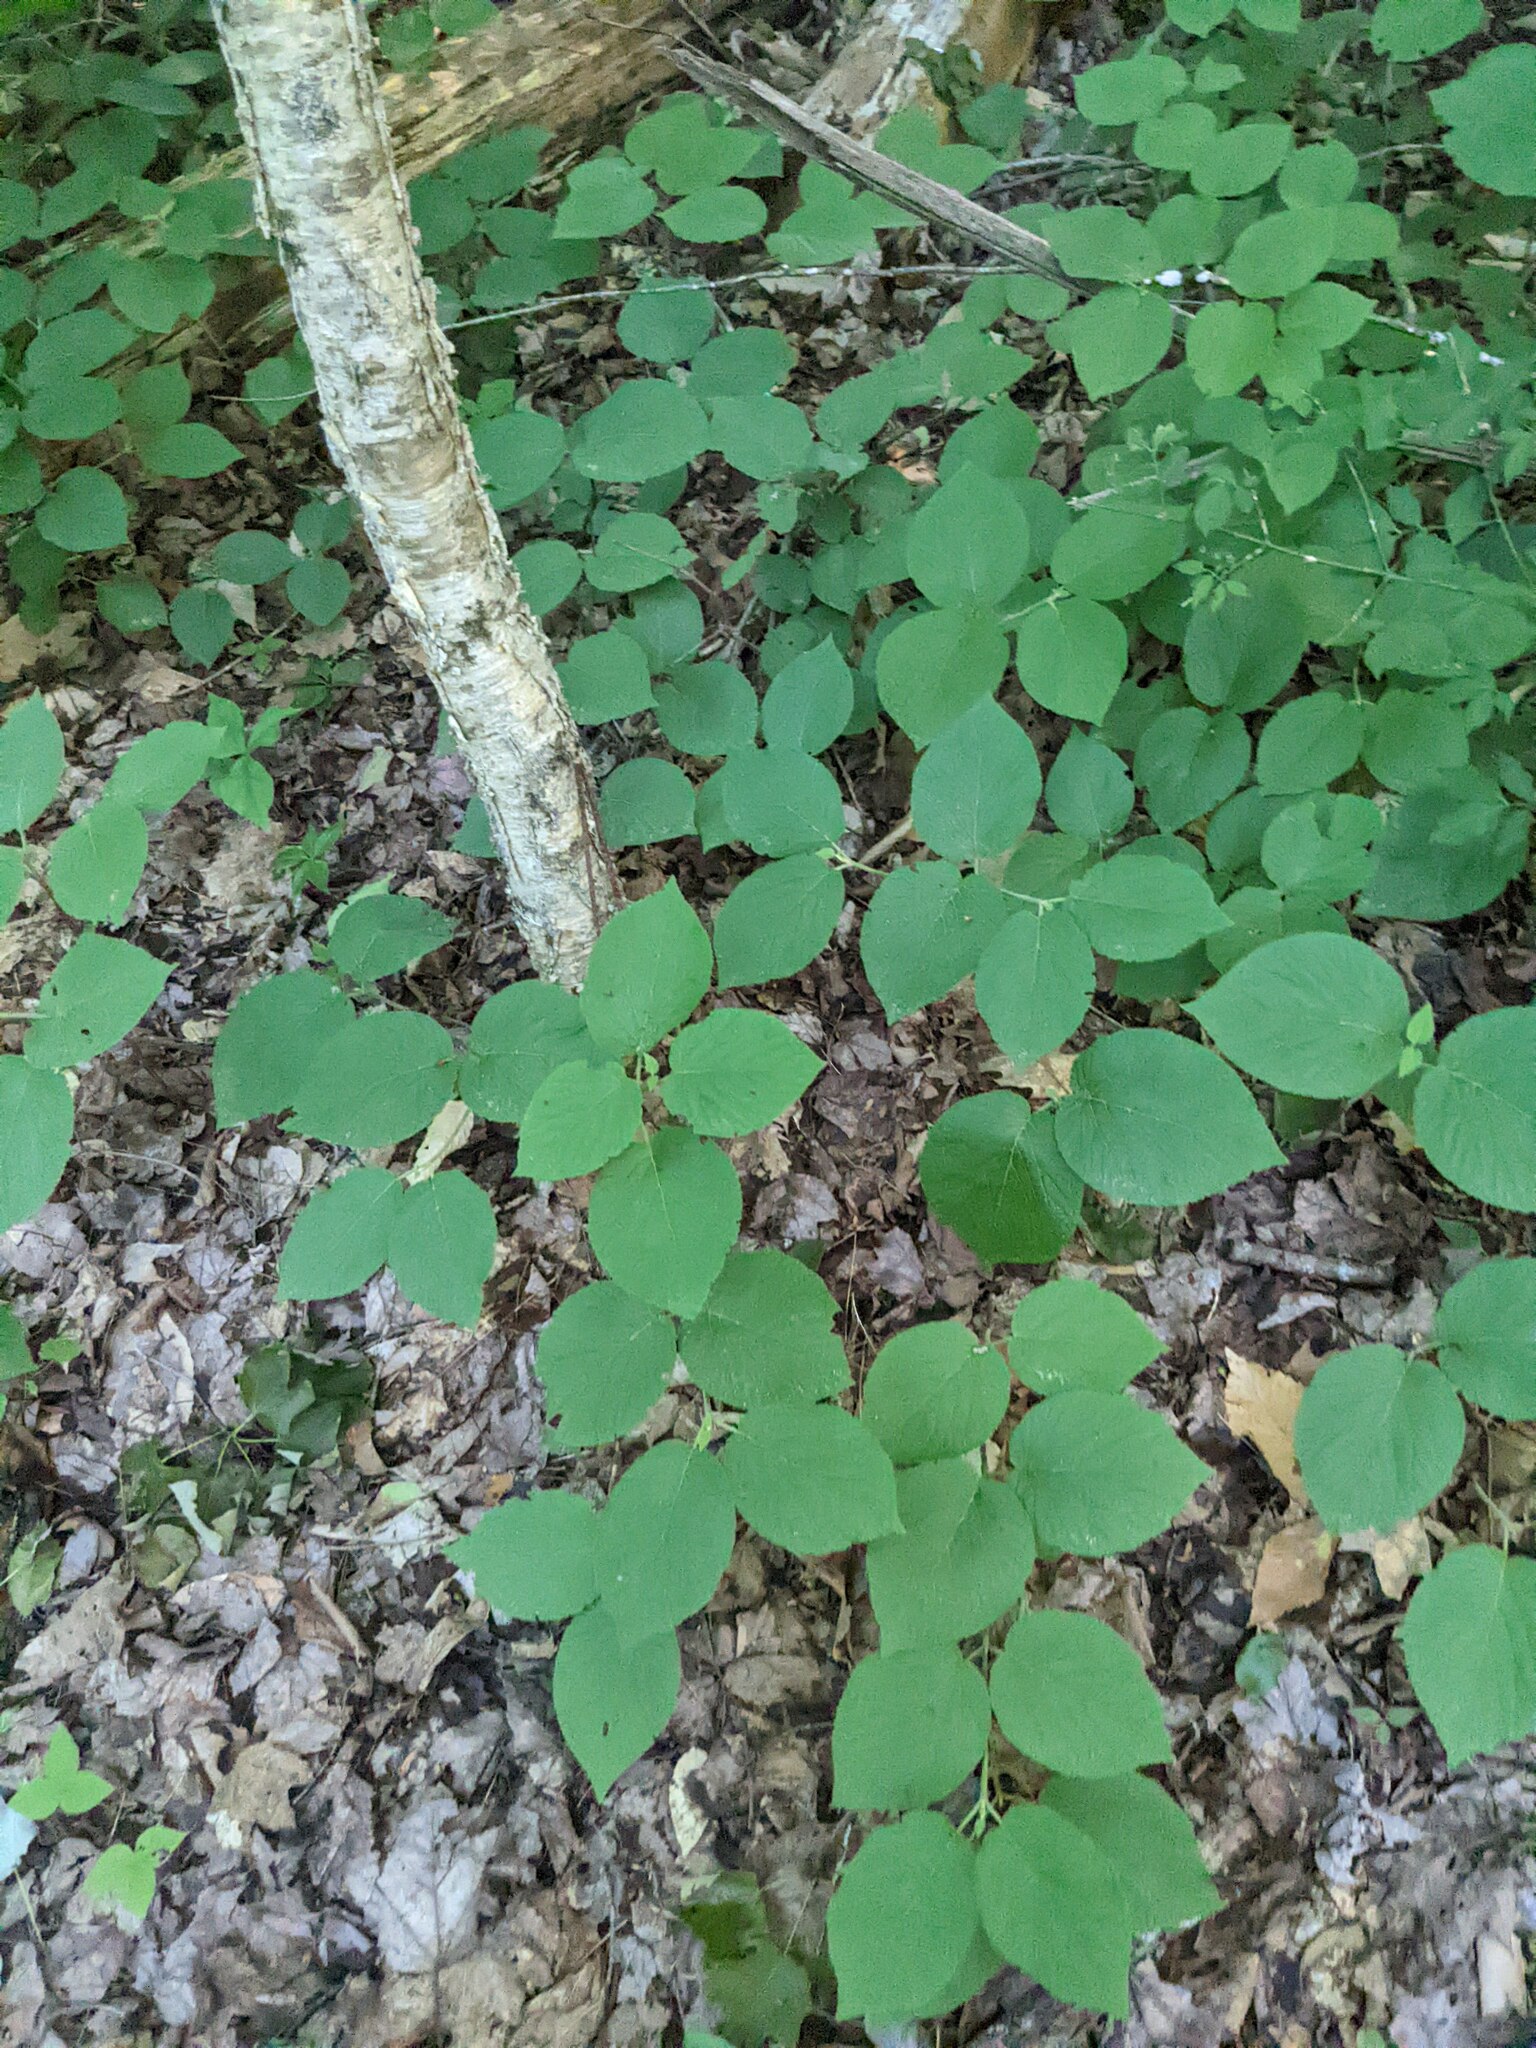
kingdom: Plantae
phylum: Tracheophyta
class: Magnoliopsida
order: Dipsacales
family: Viburnaceae
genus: Viburnum
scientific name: Viburnum lantanoides
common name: Hobblebush
